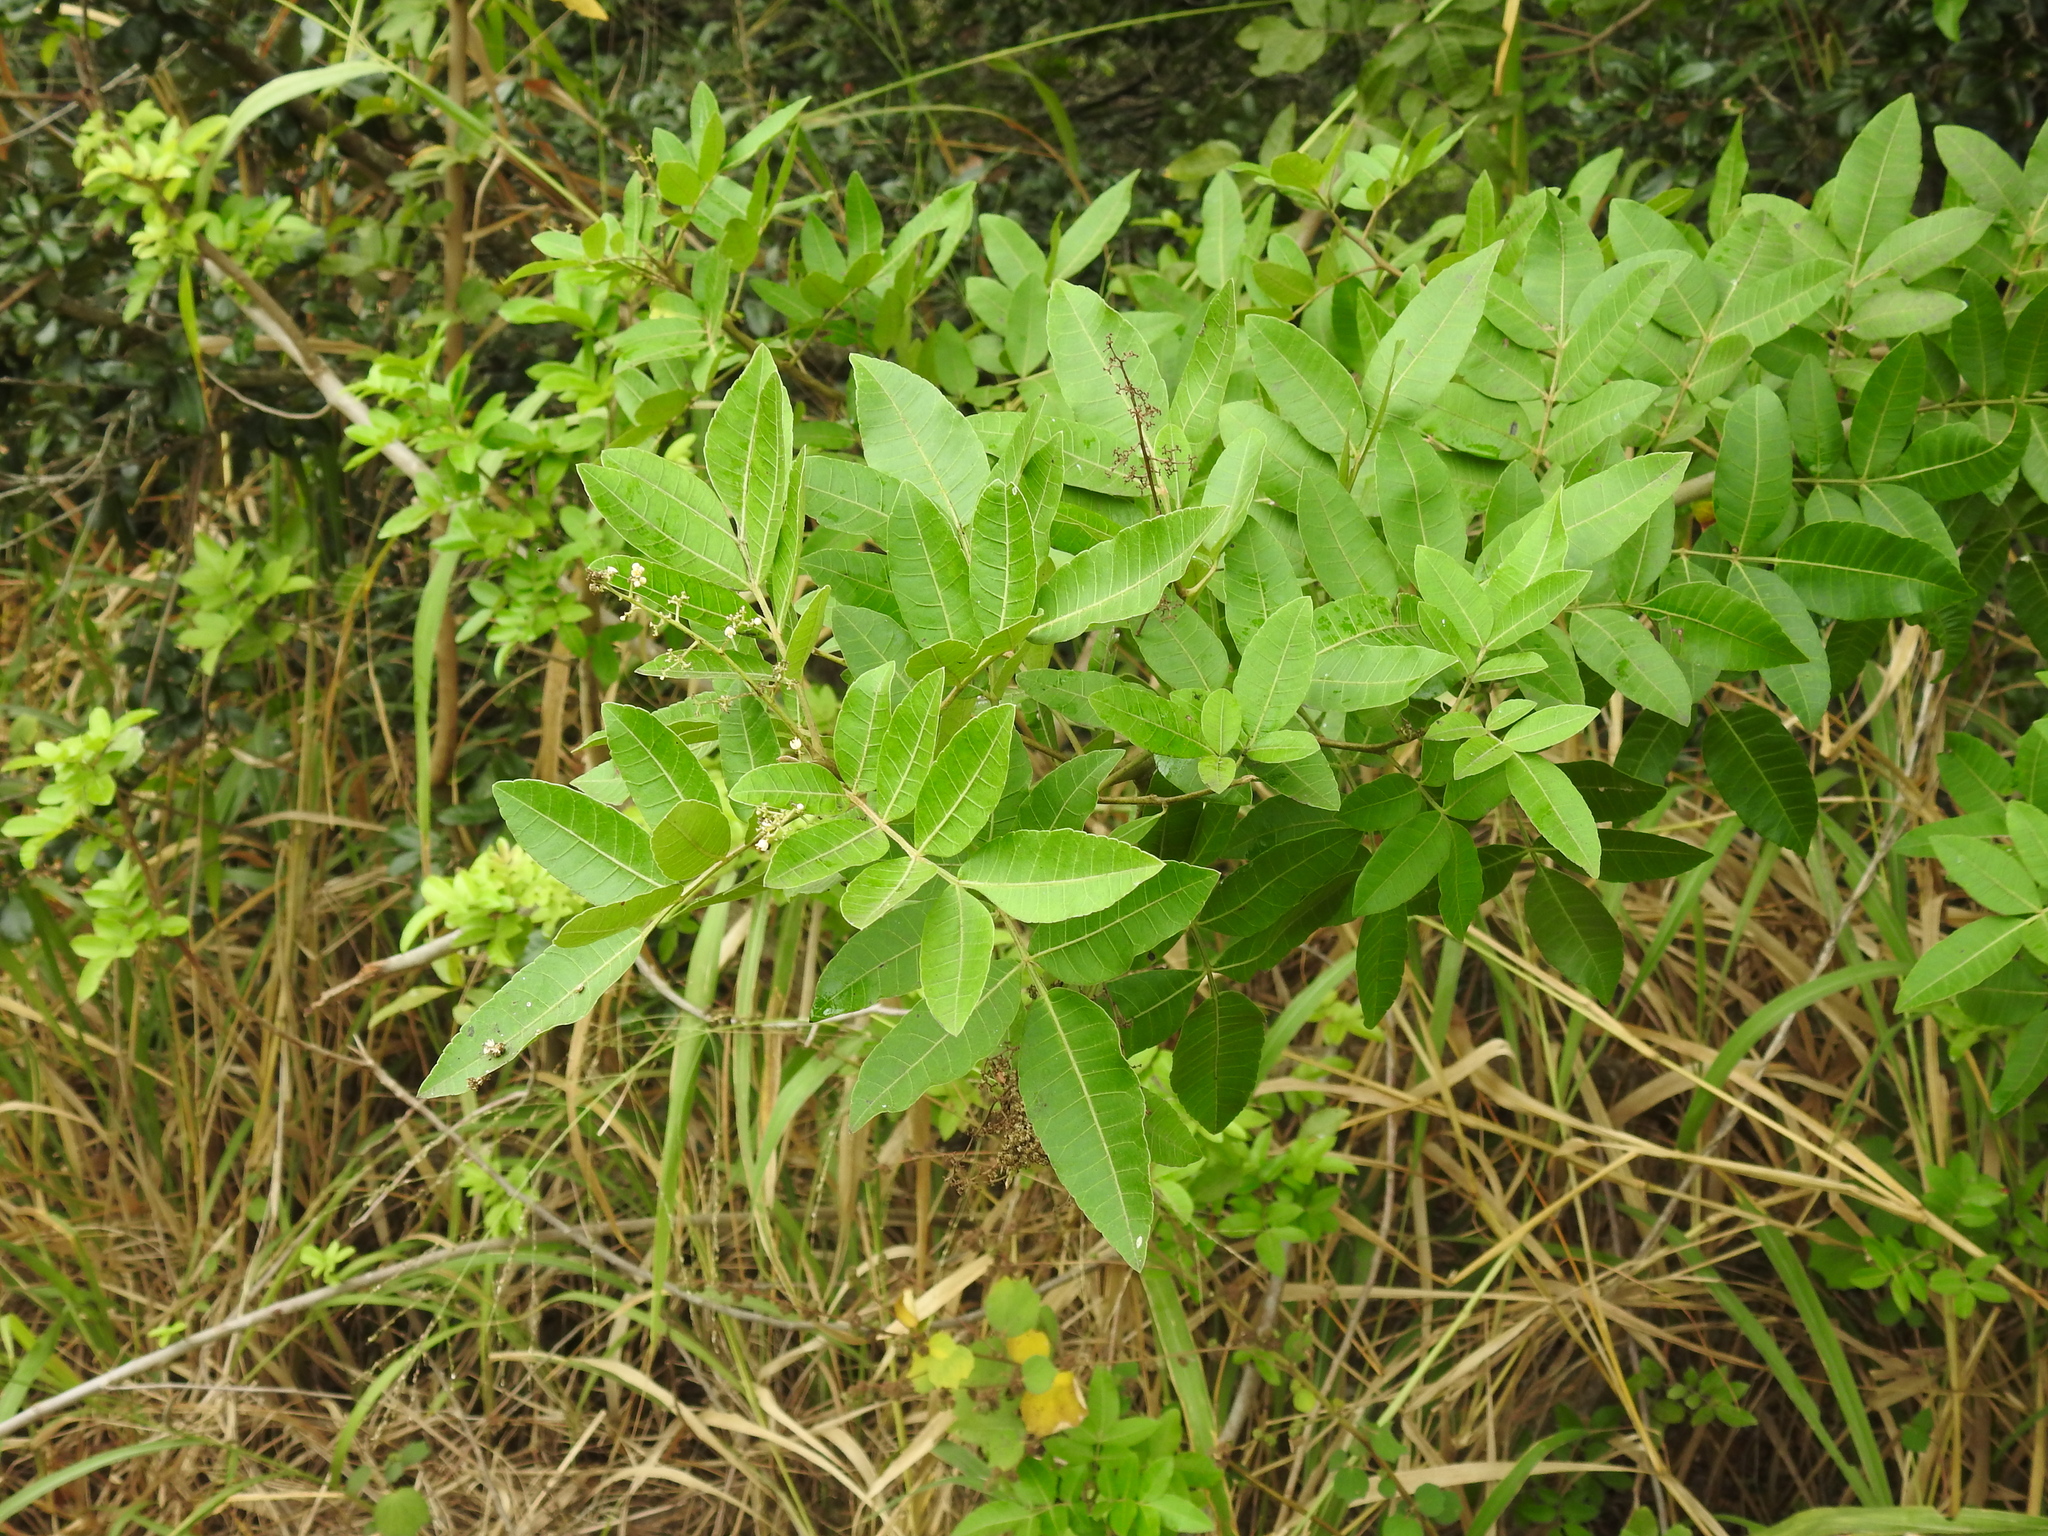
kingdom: Plantae
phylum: Tracheophyta
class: Magnoliopsida
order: Sapindales
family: Anacardiaceae
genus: Schinus
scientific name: Schinus terebinthifolia
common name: Brazilian peppertree
